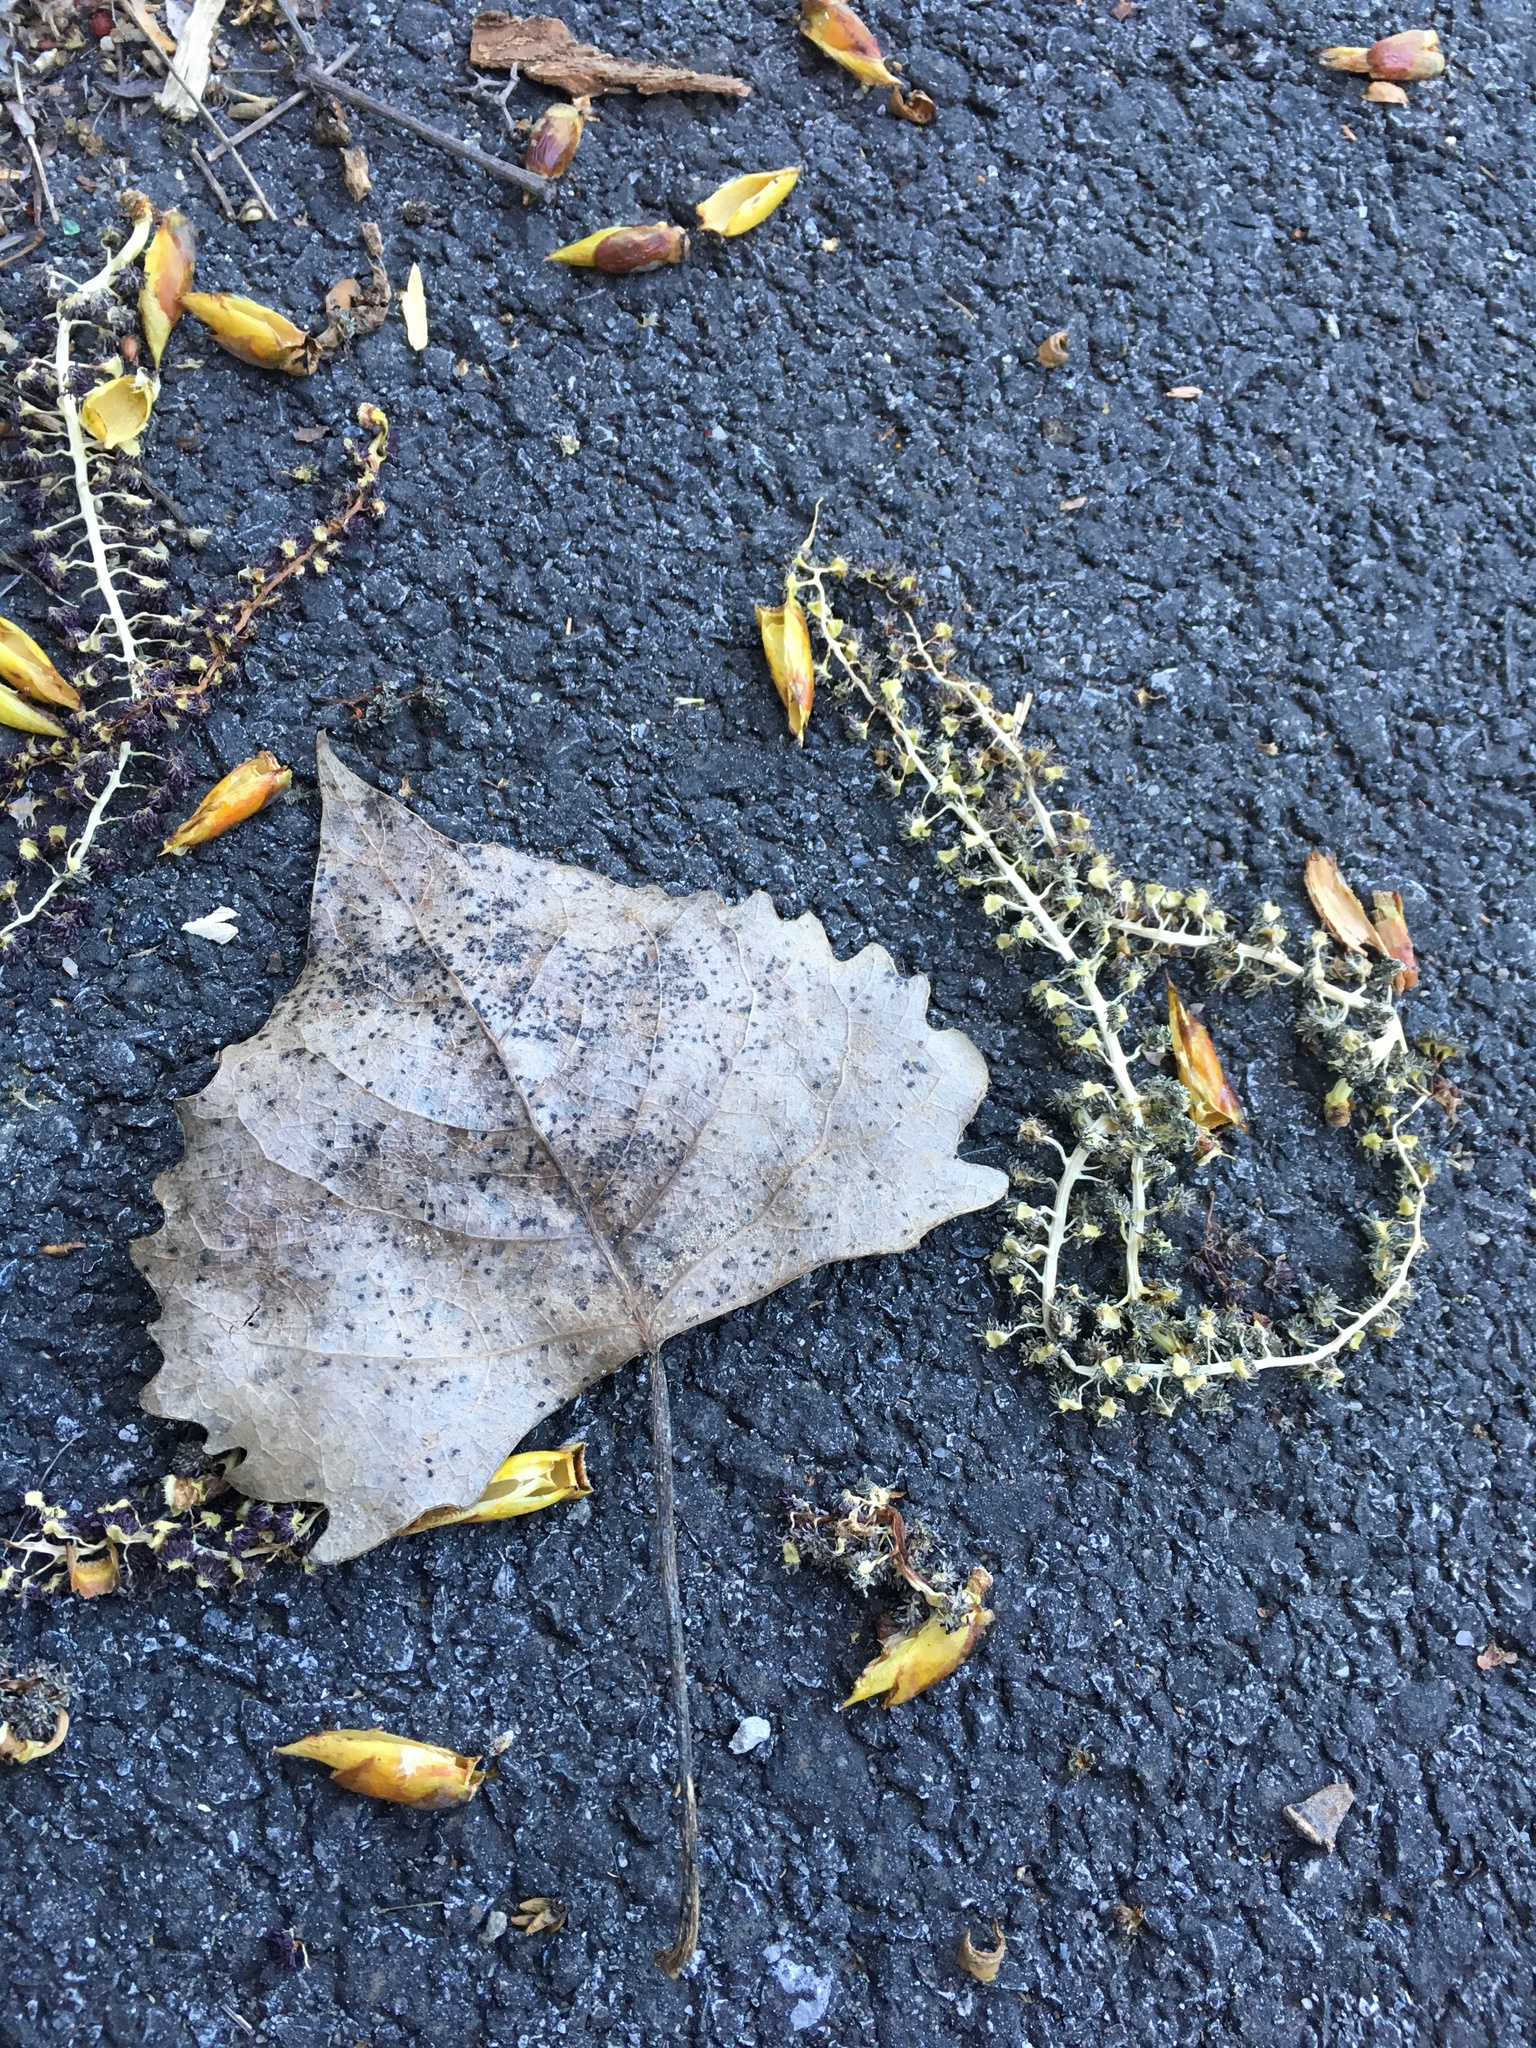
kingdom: Plantae
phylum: Tracheophyta
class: Magnoliopsida
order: Malpighiales
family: Salicaceae
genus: Populus
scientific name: Populus deltoides
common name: Eastern cottonwood
